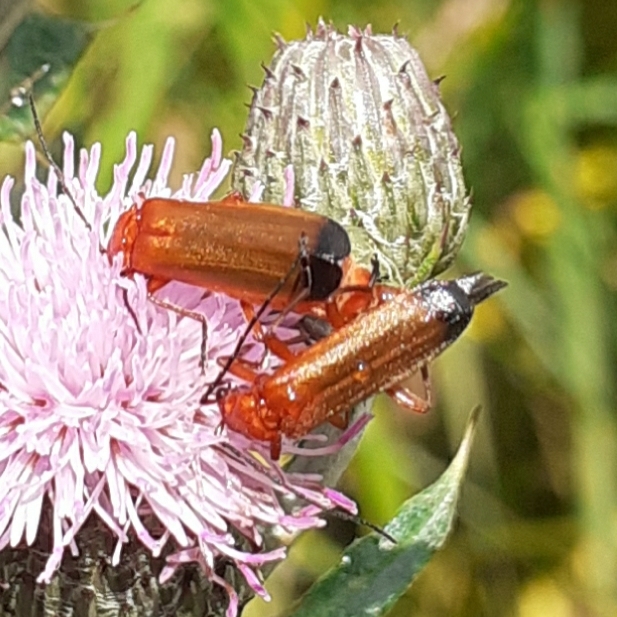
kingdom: Animalia
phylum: Arthropoda
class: Insecta
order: Coleoptera
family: Cantharidae
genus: Rhagonycha
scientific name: Rhagonycha fulva
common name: Common red soldier beetle
